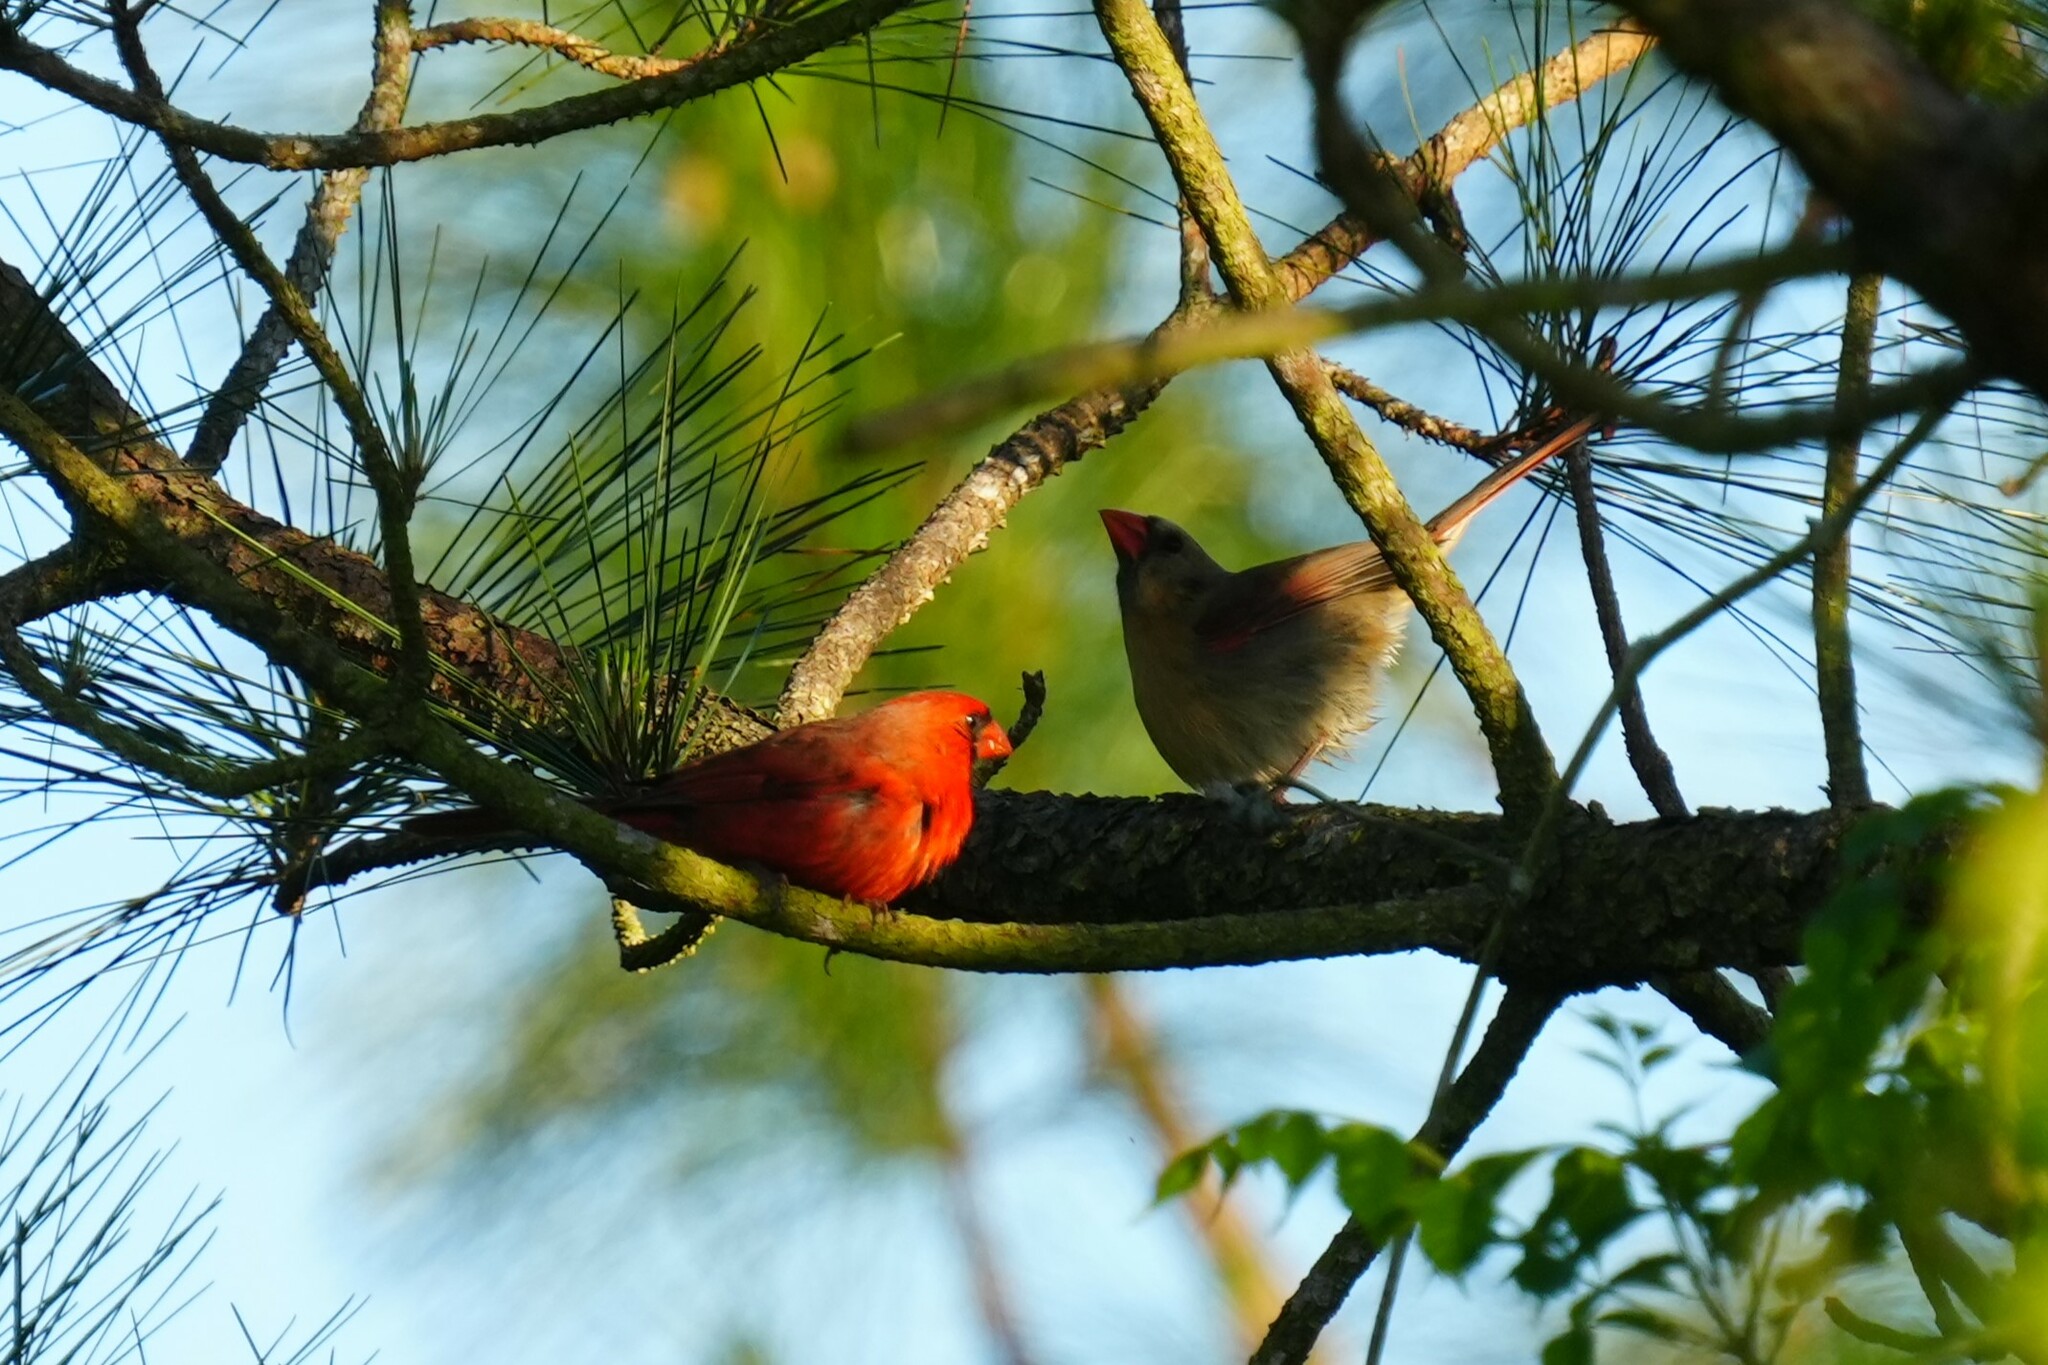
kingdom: Animalia
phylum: Chordata
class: Aves
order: Passeriformes
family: Cardinalidae
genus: Cardinalis
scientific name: Cardinalis cardinalis
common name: Northern cardinal
